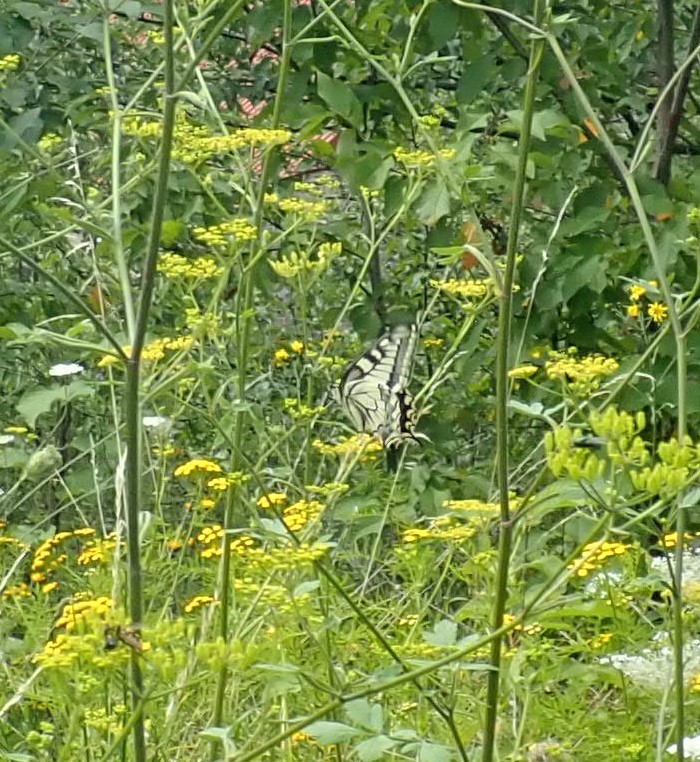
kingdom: Animalia
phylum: Arthropoda
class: Insecta
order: Lepidoptera
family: Papilionidae
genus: Papilio
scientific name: Papilio machaon
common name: Swallowtail
